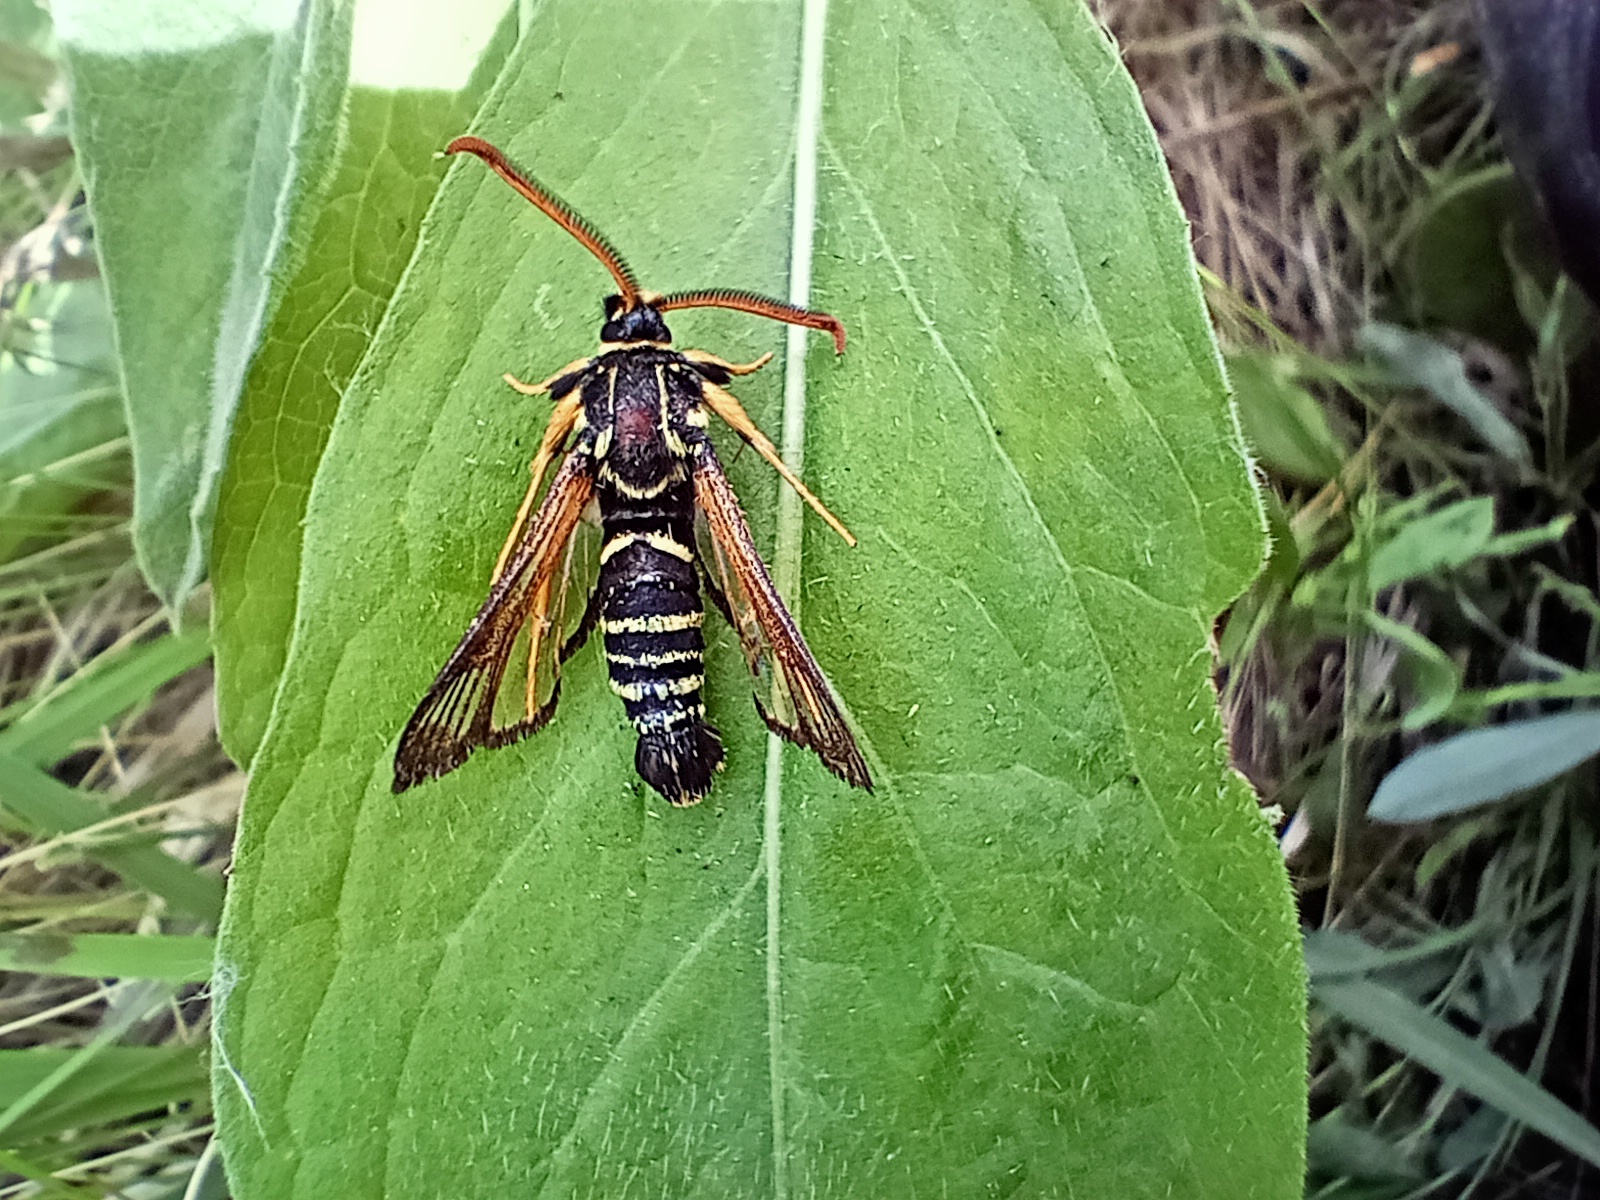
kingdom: Animalia
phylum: Arthropoda
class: Insecta
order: Lepidoptera
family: Sesiidae
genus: Paranthrene
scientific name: Paranthrene insolitus
